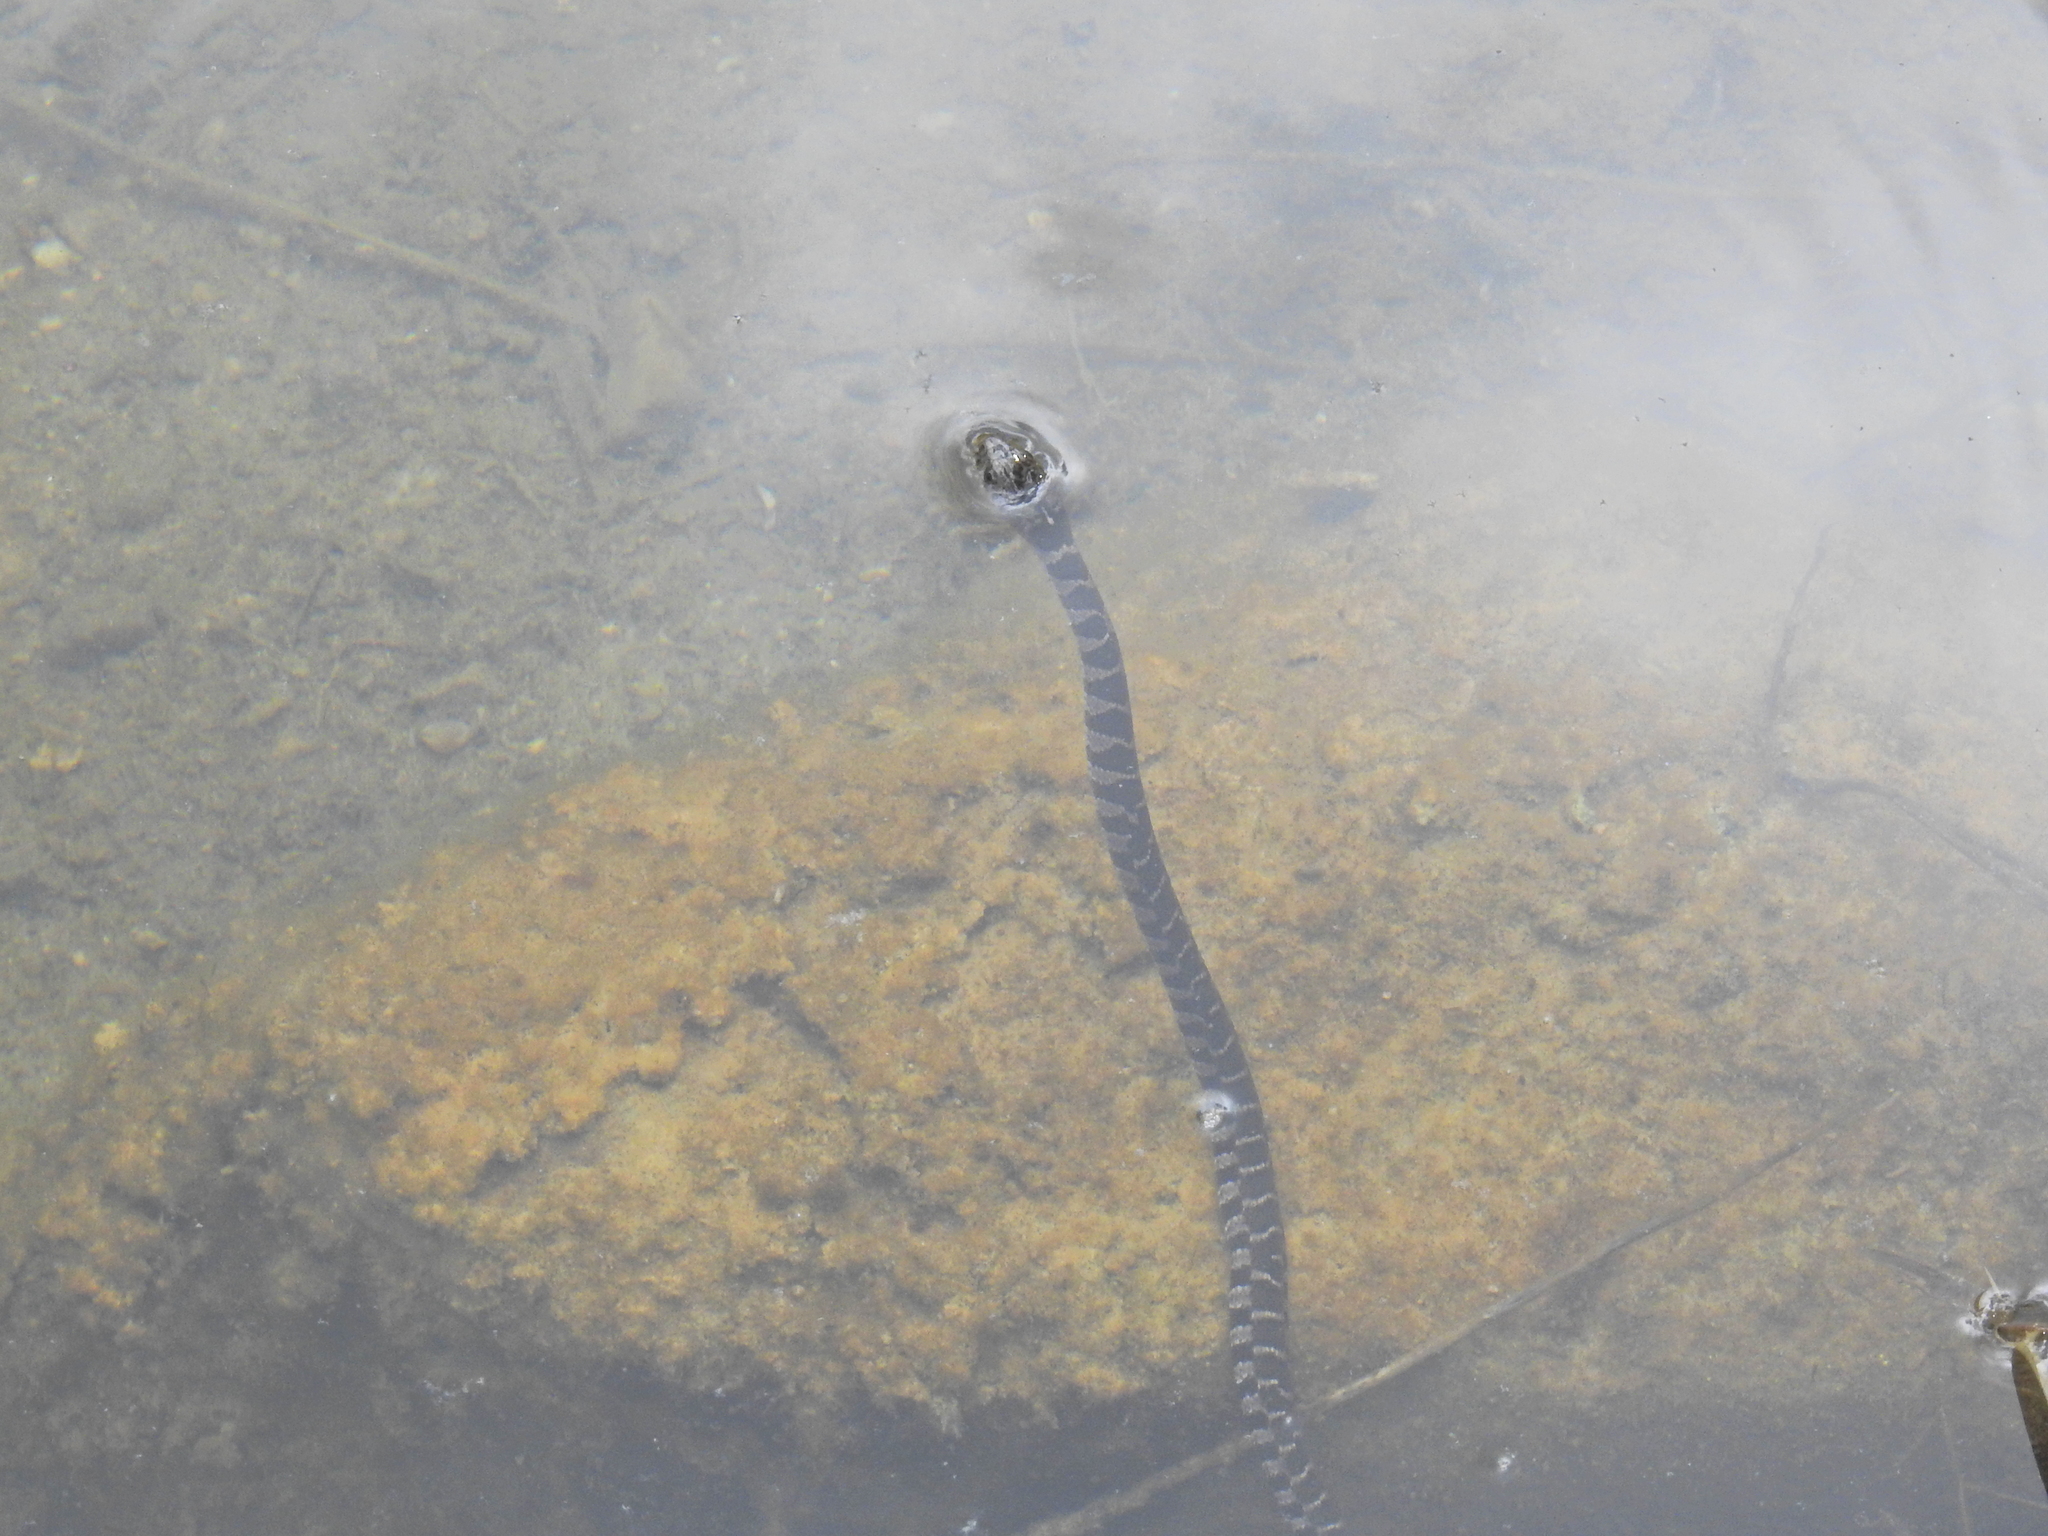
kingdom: Animalia
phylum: Chordata
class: Squamata
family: Colubridae
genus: Nerodia
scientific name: Nerodia sipedon
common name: Northern water snake
